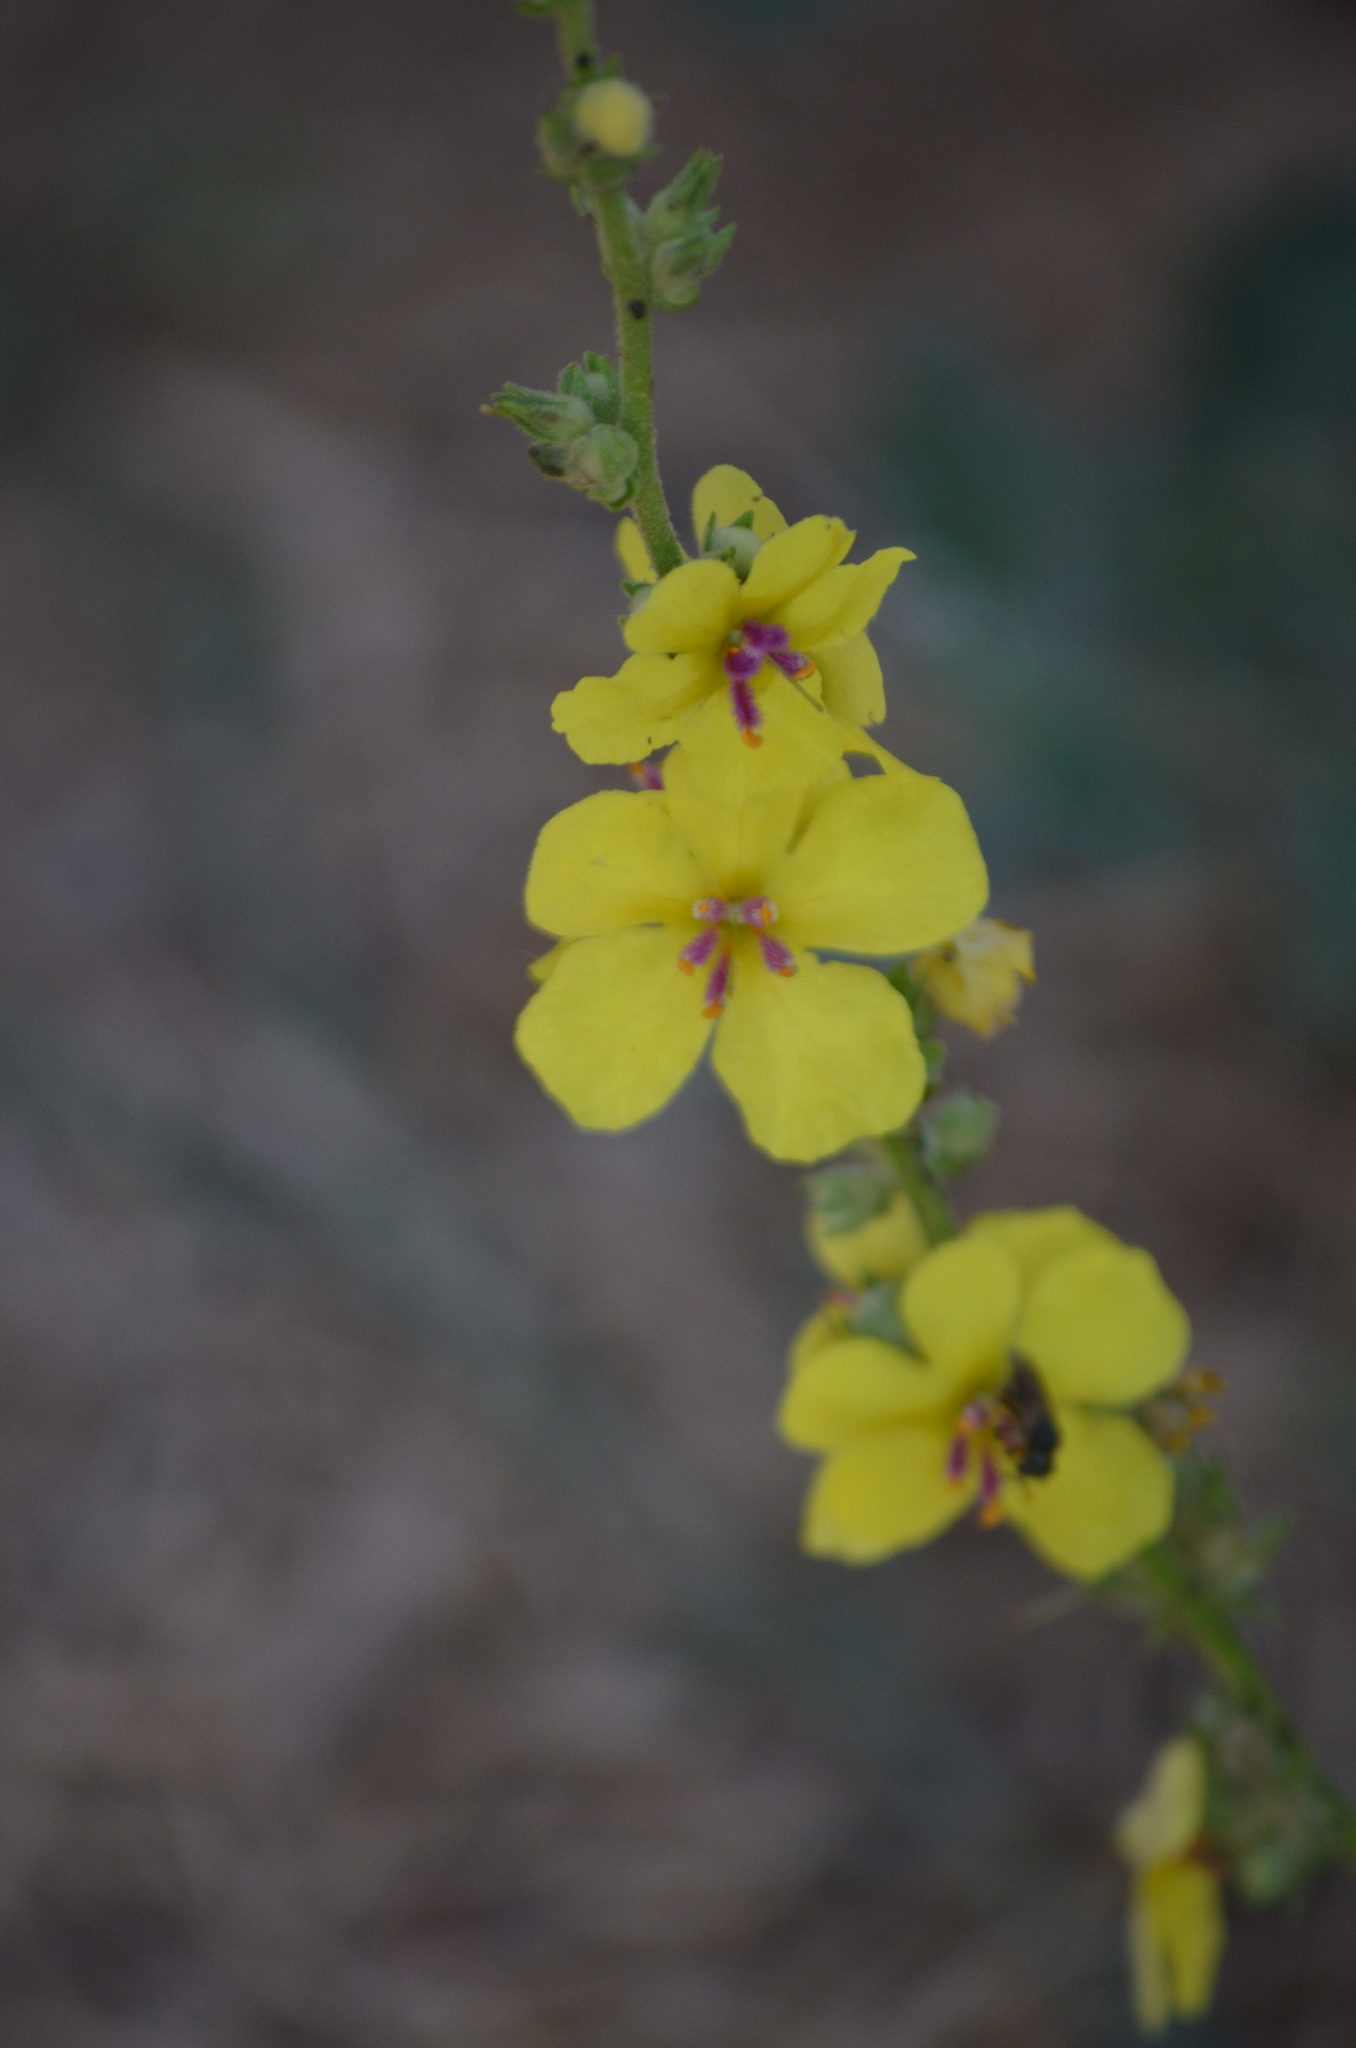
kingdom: Plantae
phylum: Tracheophyta
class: Magnoliopsida
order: Lamiales
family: Scrophulariaceae
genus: Verbascum
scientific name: Verbascum sinuatum
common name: Wavyleaf mullein
